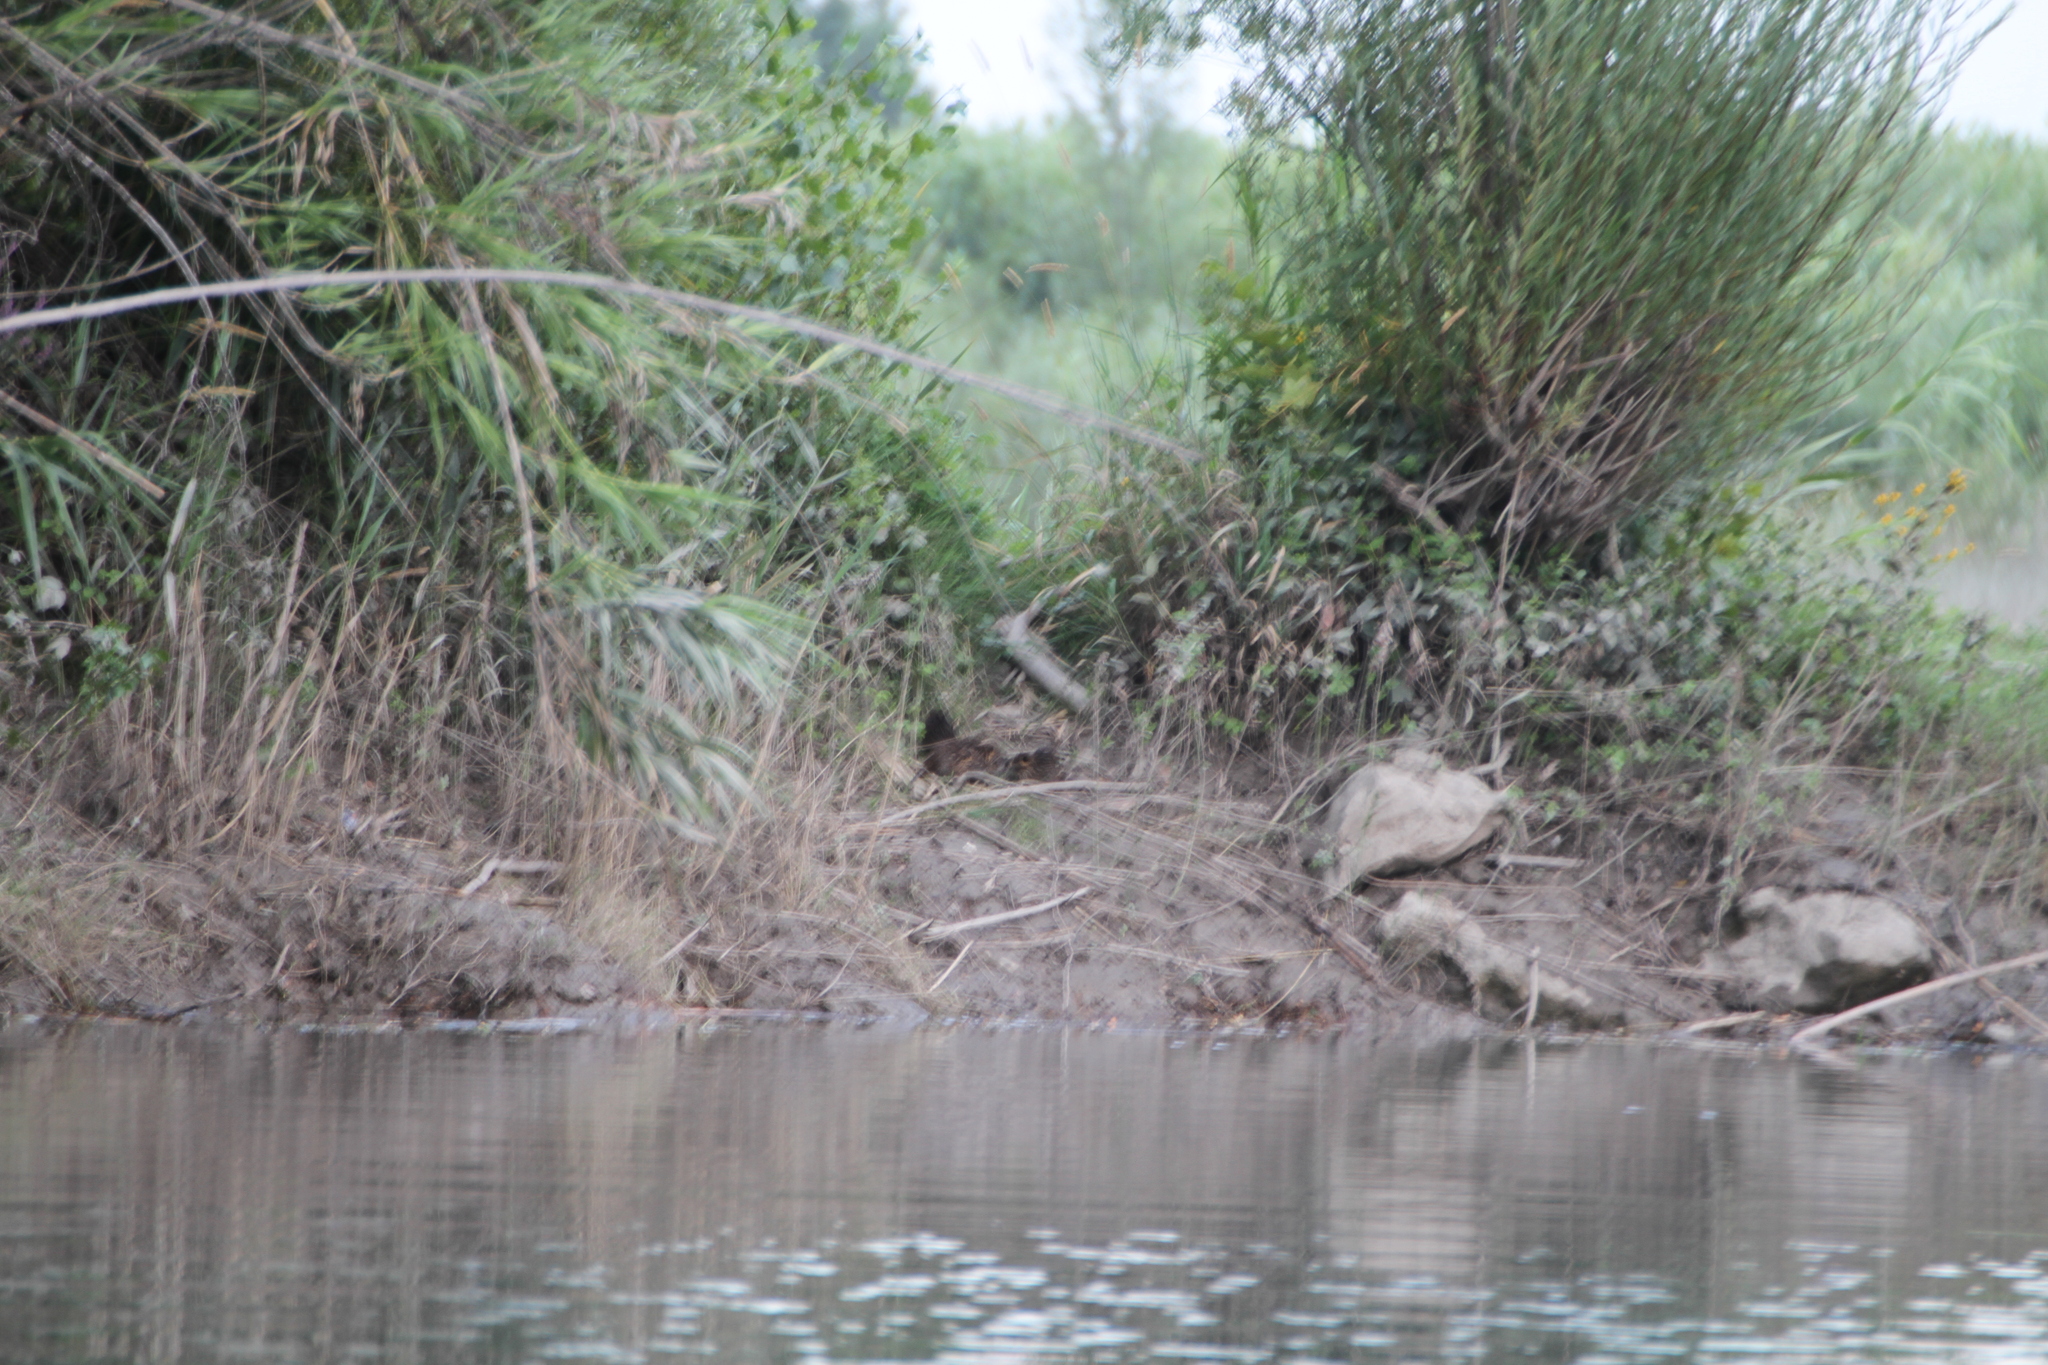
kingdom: Animalia
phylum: Chordata
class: Mammalia
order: Rodentia
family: Myocastoridae
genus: Myocastor
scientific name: Myocastor coypus
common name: Coypu
